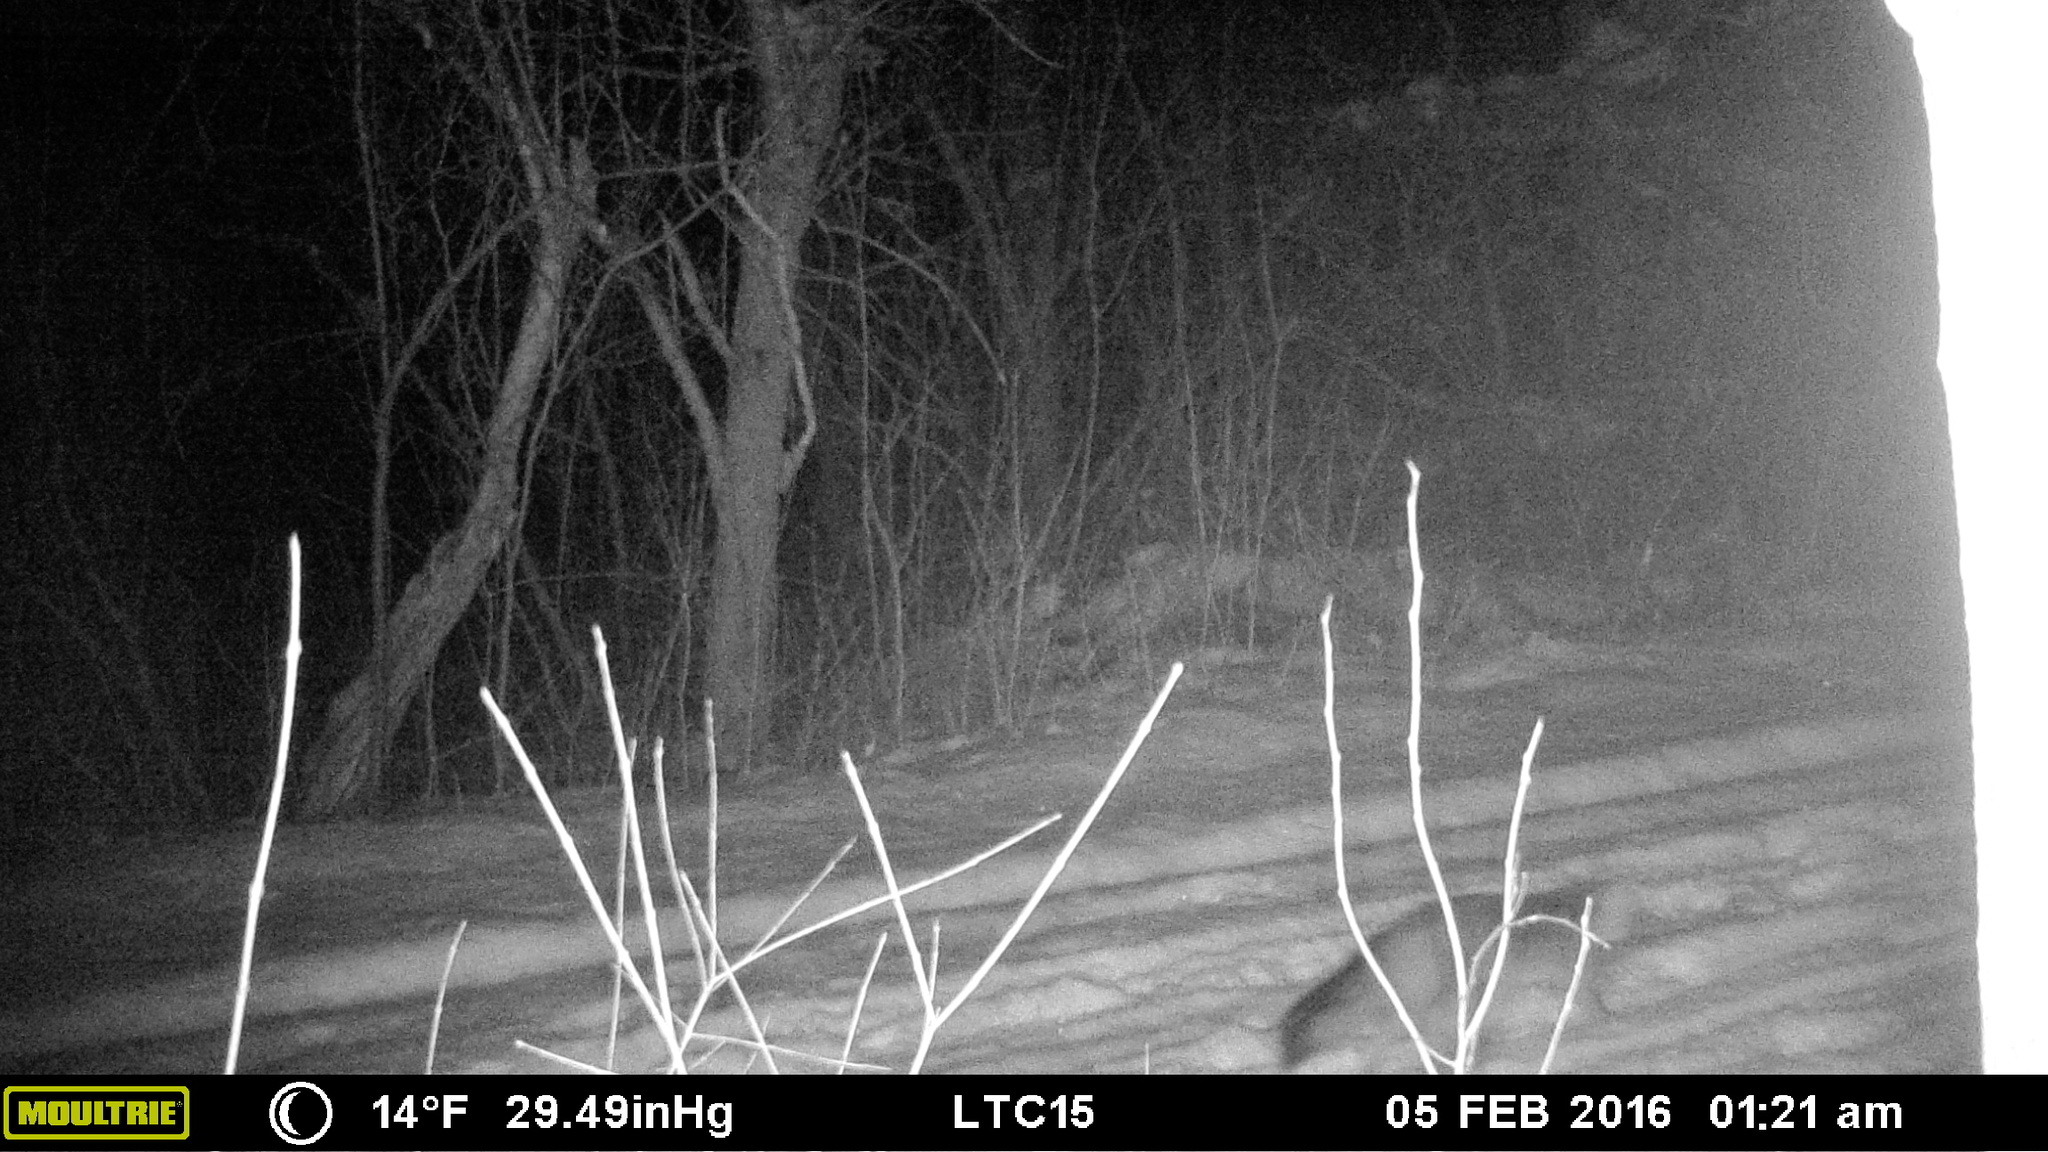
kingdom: Animalia
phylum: Chordata
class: Mammalia
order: Carnivora
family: Canidae
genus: Urocyon
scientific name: Urocyon cinereoargenteus
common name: Gray fox
